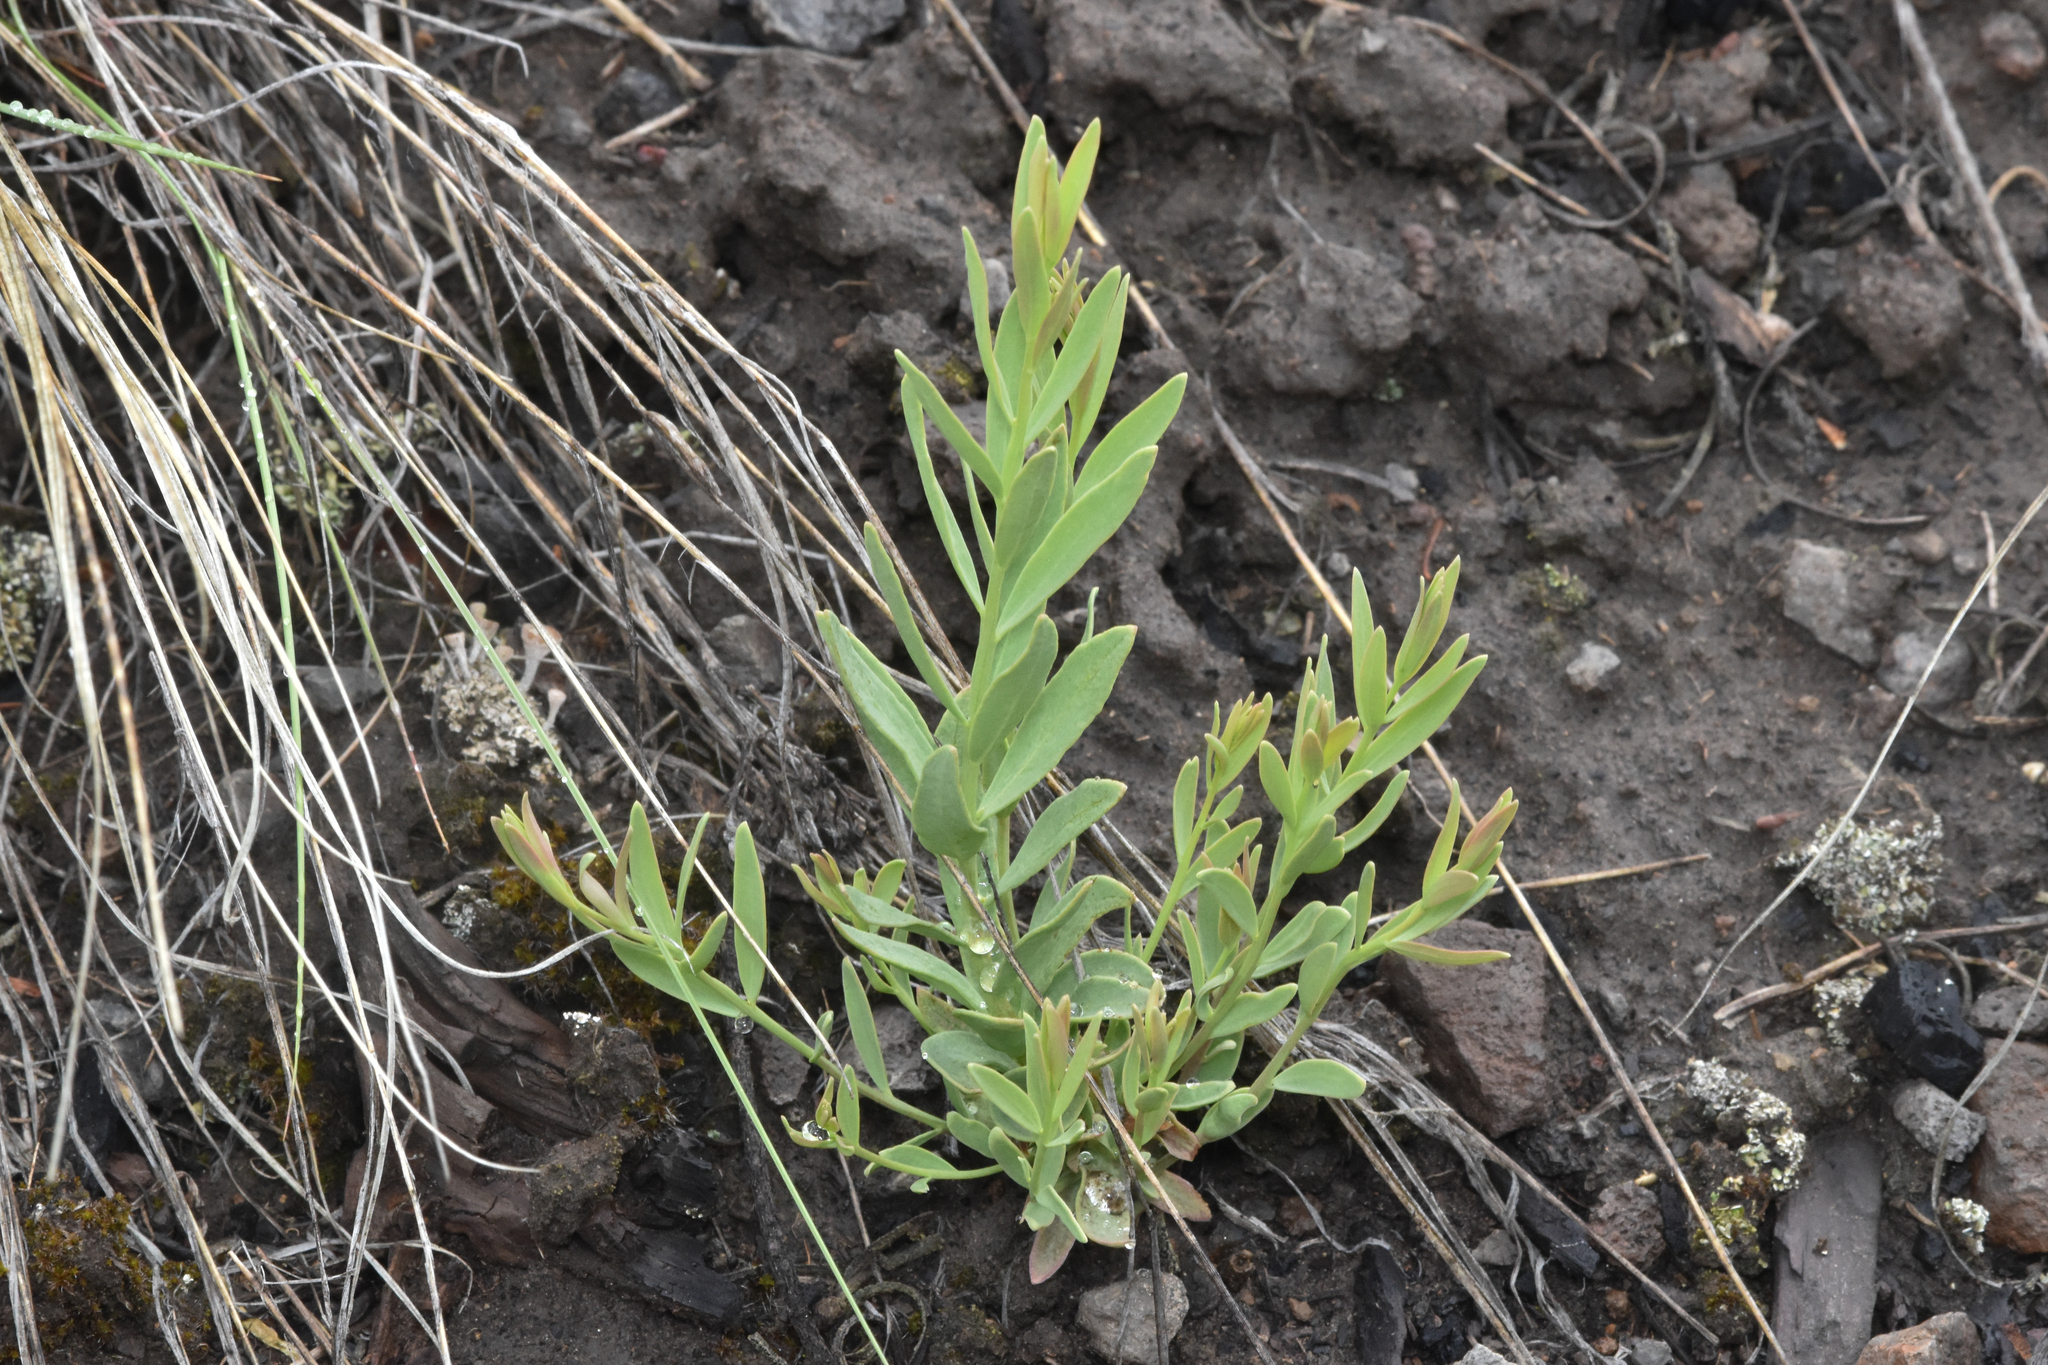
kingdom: Plantae
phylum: Tracheophyta
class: Magnoliopsida
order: Santalales
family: Comandraceae
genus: Comandra
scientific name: Comandra umbellata
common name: Bastard toadflax
